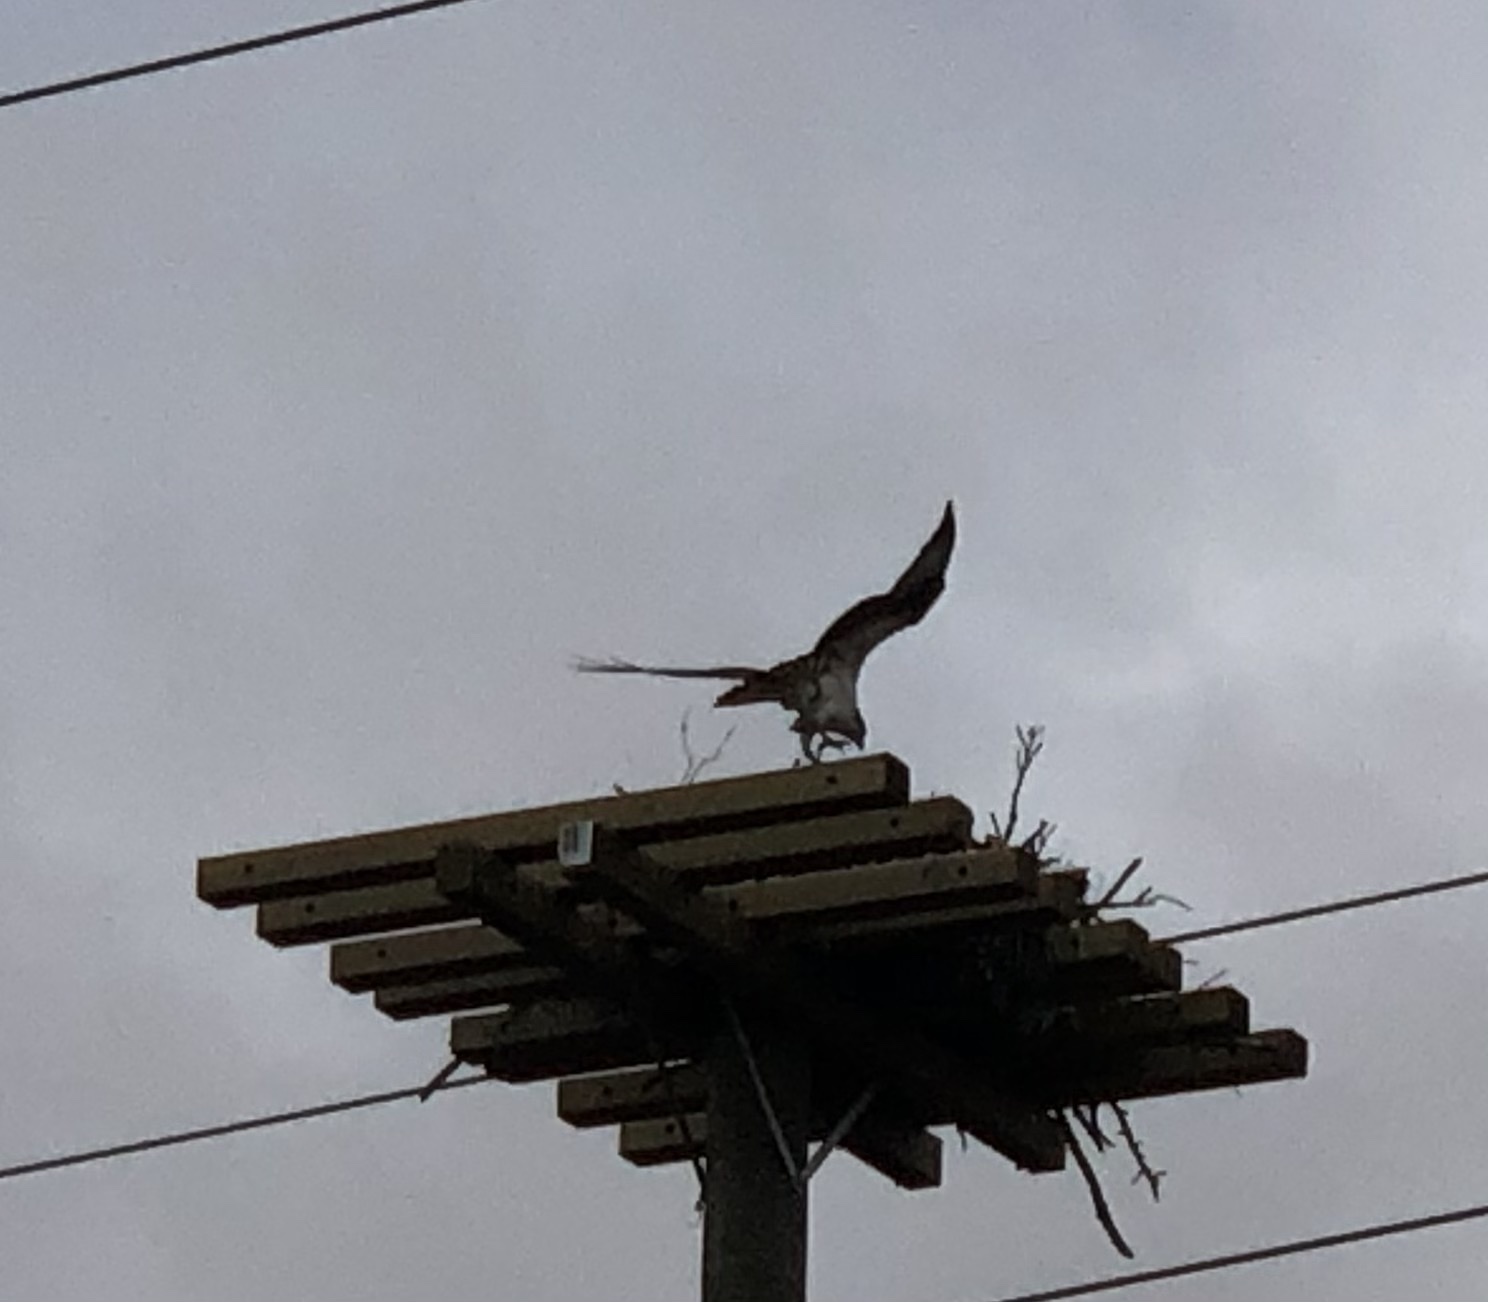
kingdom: Animalia
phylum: Chordata
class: Aves
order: Accipitriformes
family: Pandionidae
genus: Pandion
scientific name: Pandion haliaetus
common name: Osprey
